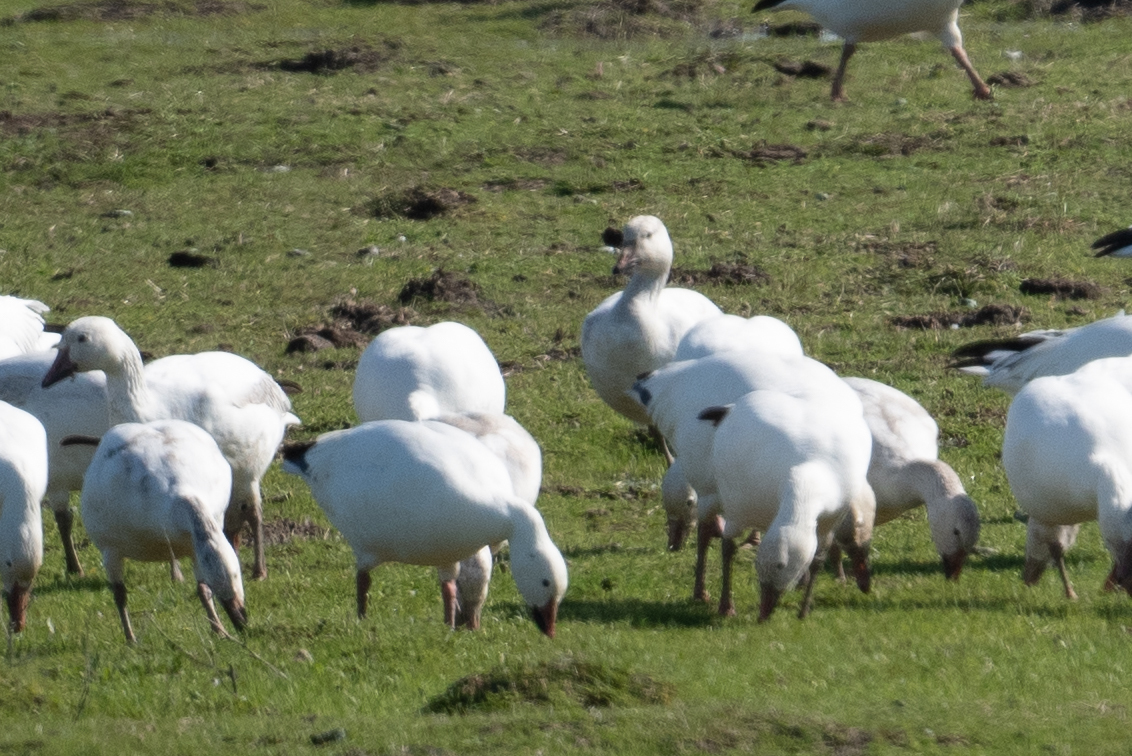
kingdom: Animalia
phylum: Chordata
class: Aves
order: Anseriformes
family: Anatidae
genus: Anser
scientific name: Anser caerulescens
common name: Snow goose
